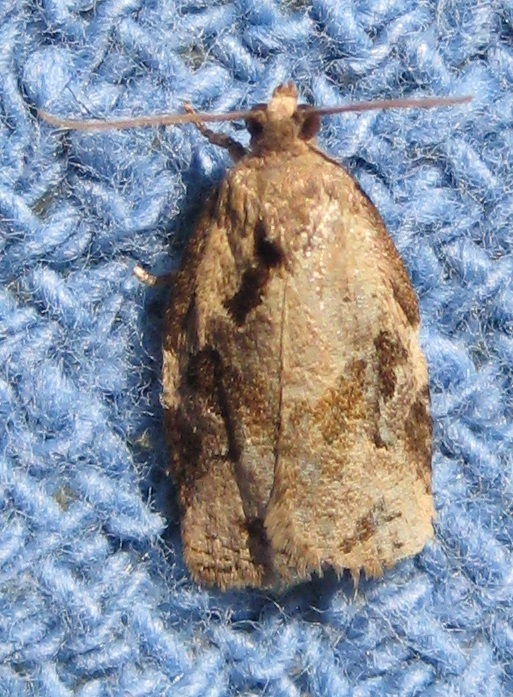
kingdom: Animalia
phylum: Arthropoda
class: Insecta
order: Lepidoptera
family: Tortricidae
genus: Archips
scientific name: Archips grisea
